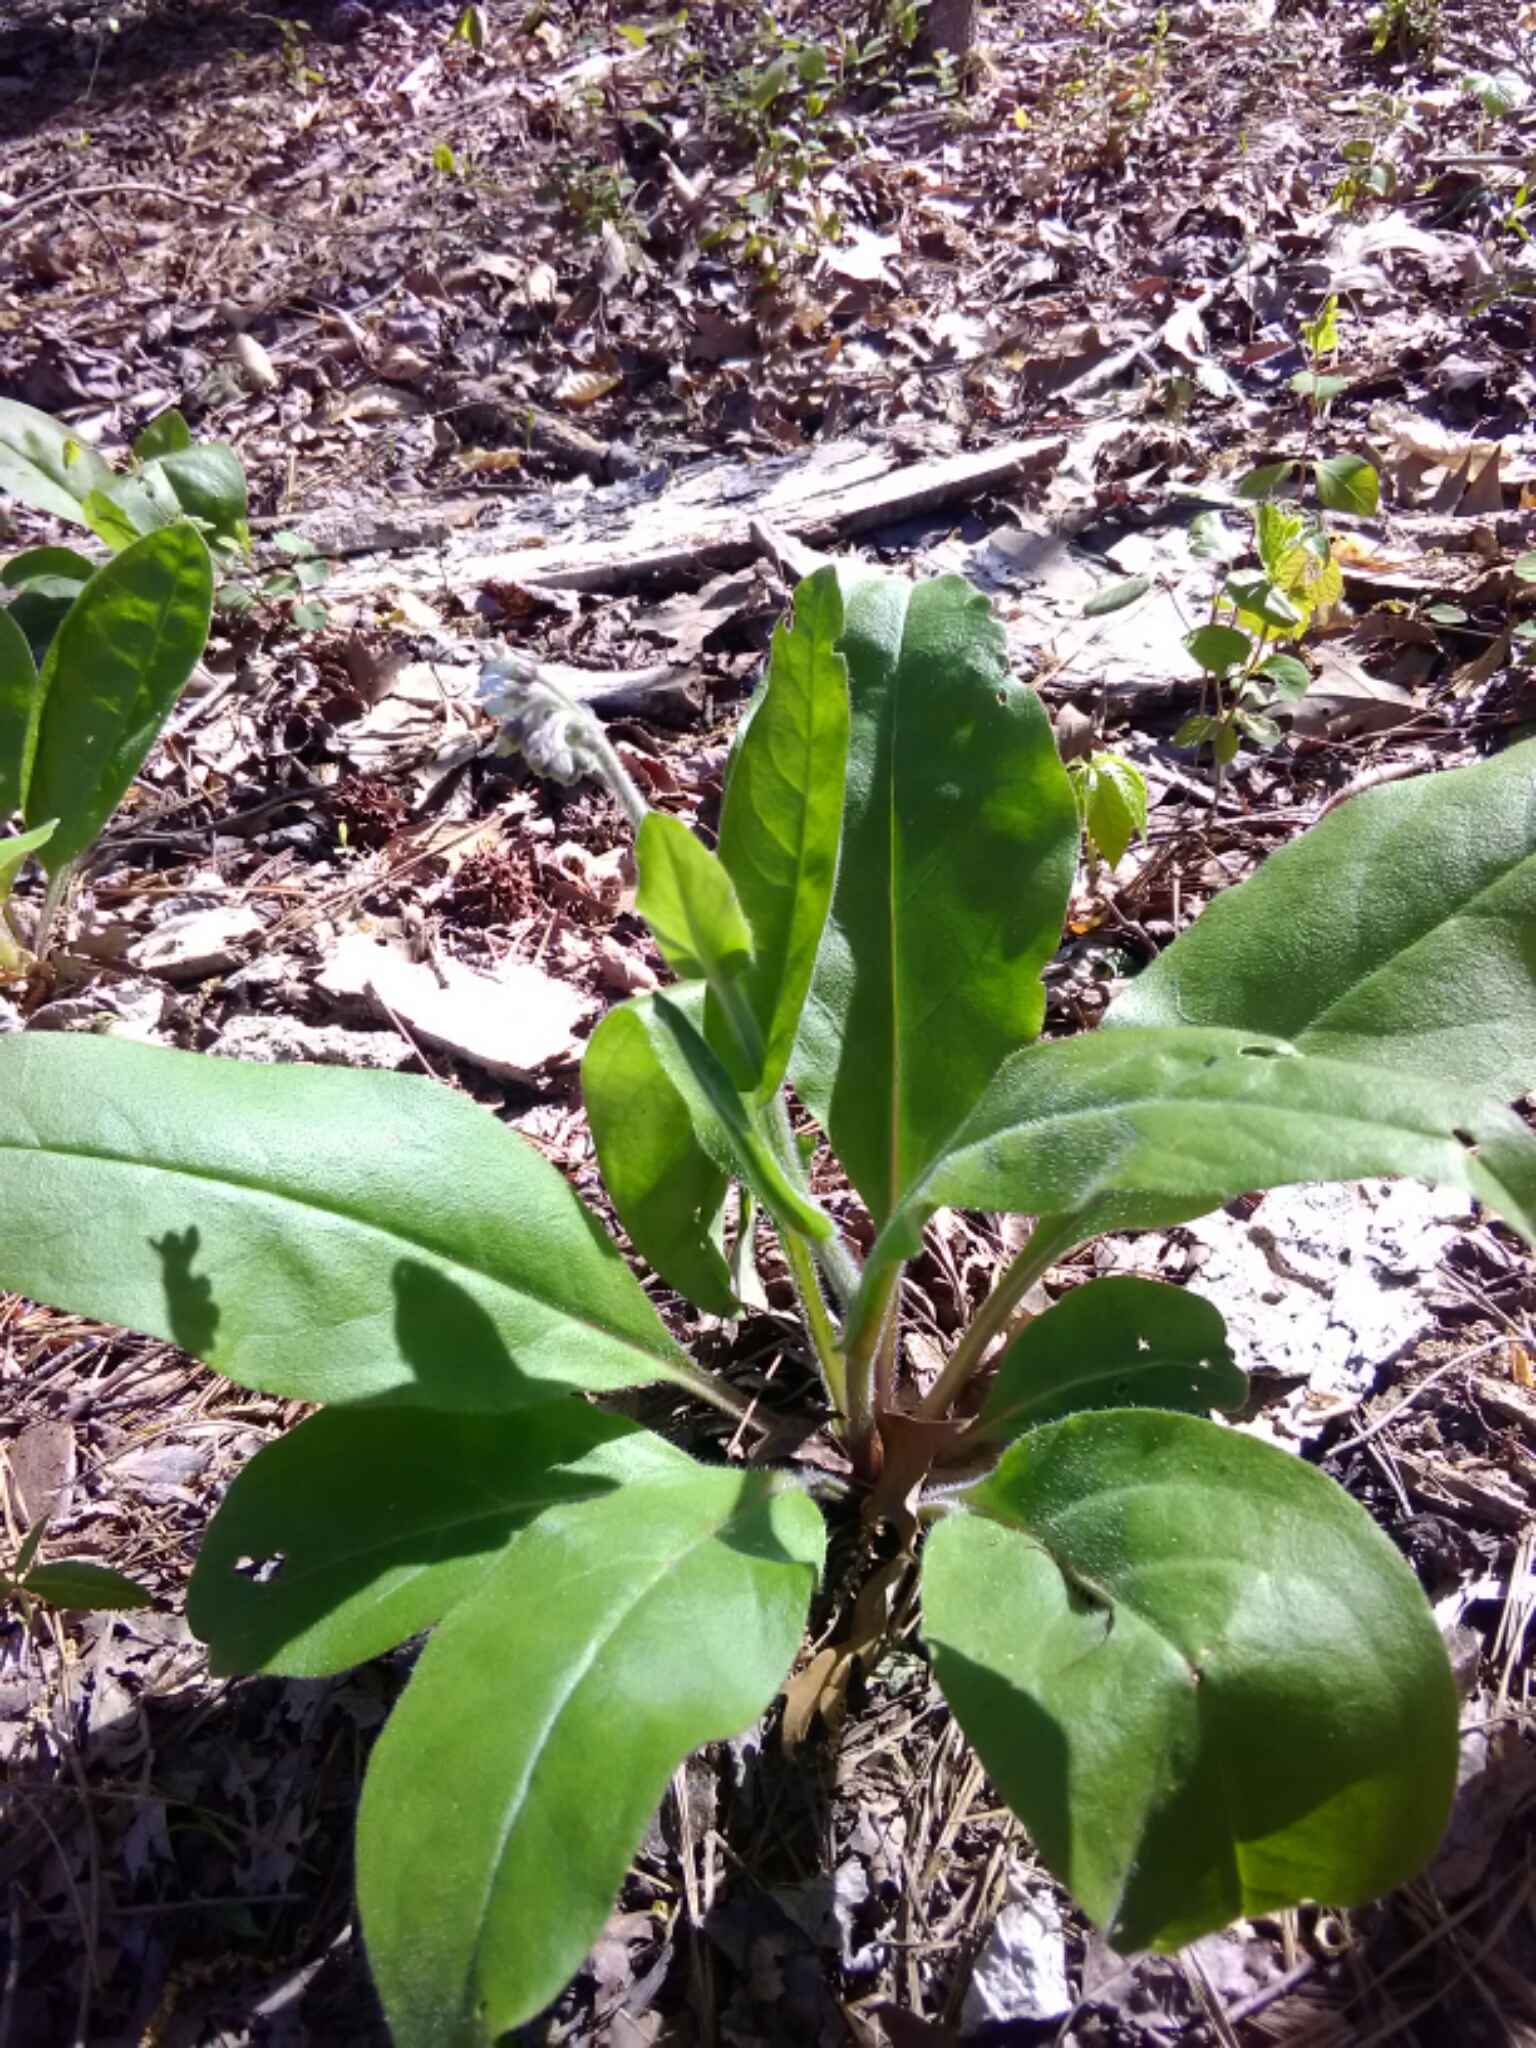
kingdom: Plantae
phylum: Tracheophyta
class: Magnoliopsida
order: Boraginales
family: Boraginaceae
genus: Andersonglossum
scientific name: Andersonglossum virginianum
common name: Wild comfrey
